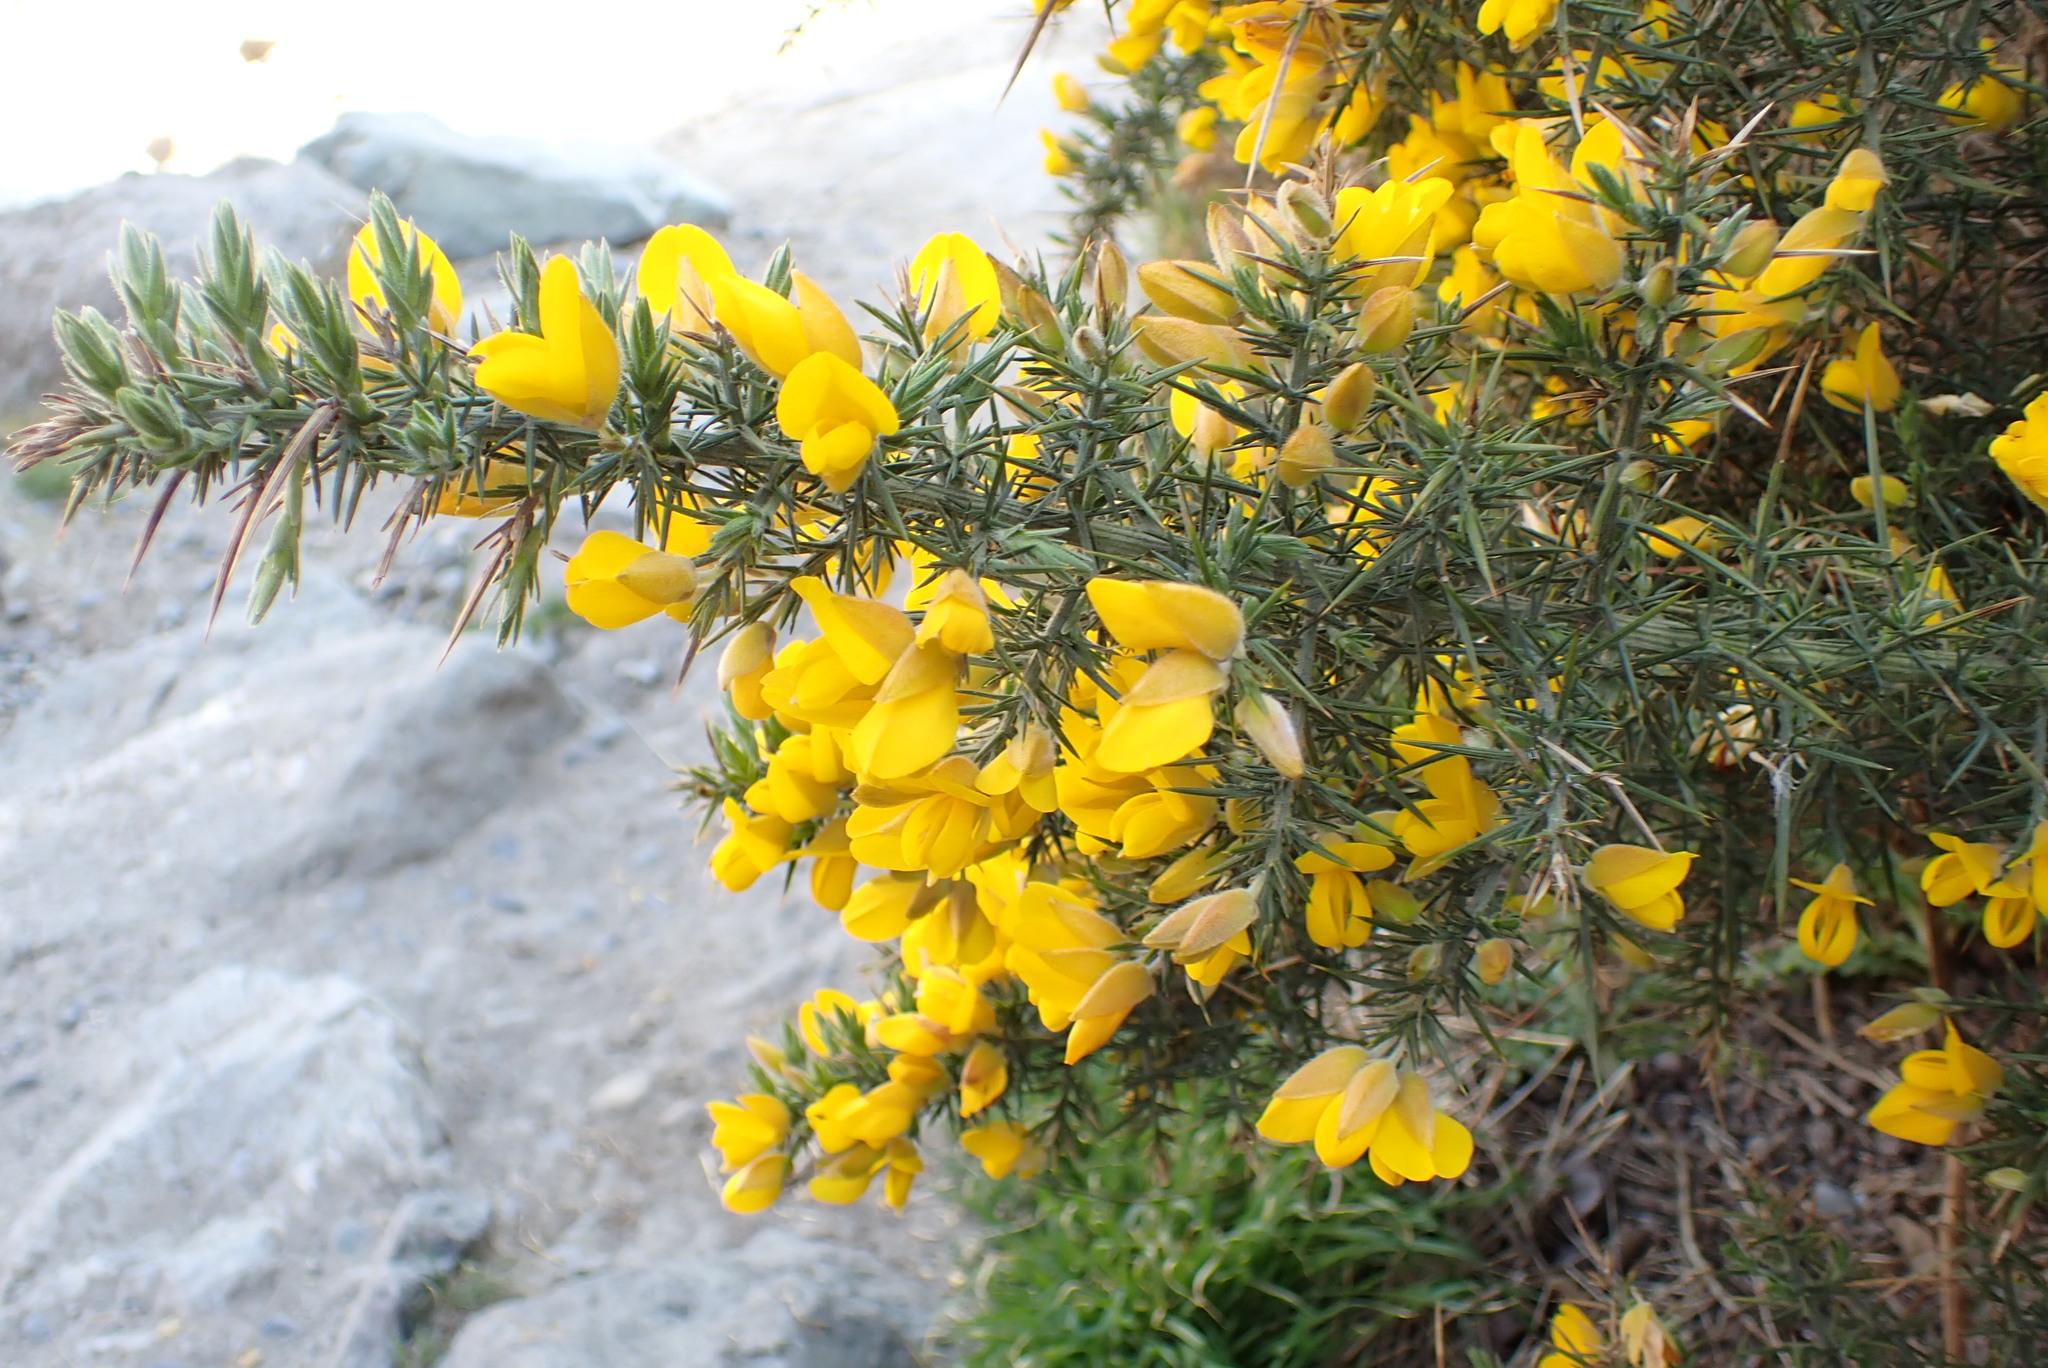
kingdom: Plantae
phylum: Tracheophyta
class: Magnoliopsida
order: Fabales
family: Fabaceae
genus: Ulex
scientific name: Ulex europaeus
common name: Common gorse
